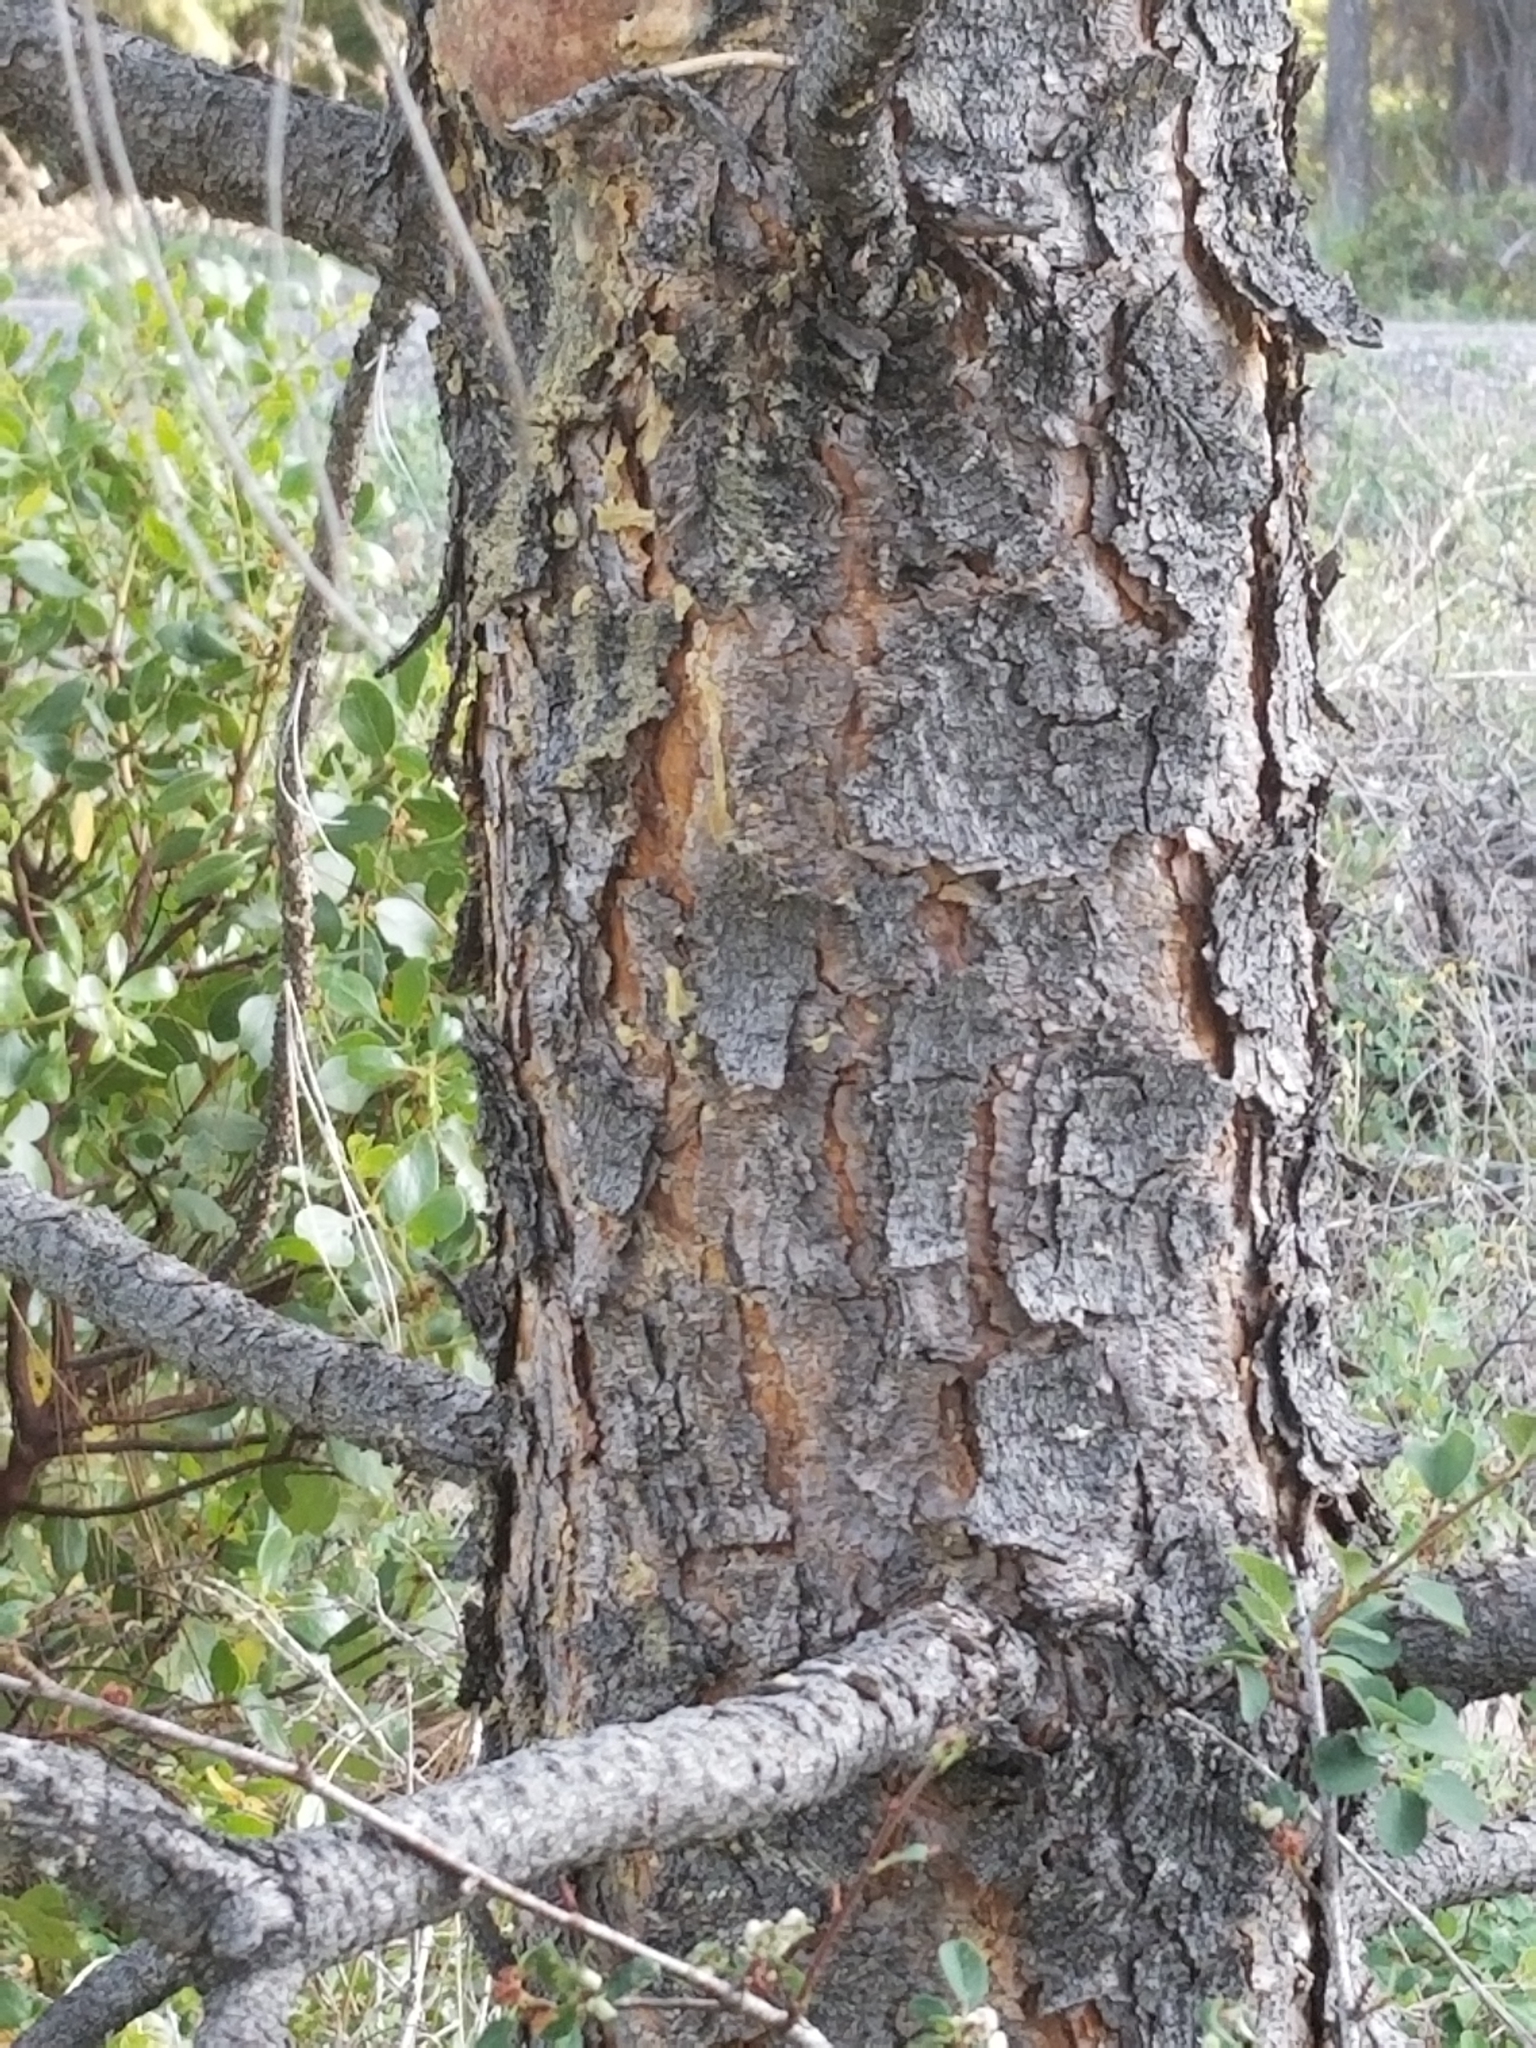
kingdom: Plantae
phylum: Tracheophyta
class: Pinopsida
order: Pinales
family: Pinaceae
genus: Pinus
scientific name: Pinus ponderosa
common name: Western yellow-pine
